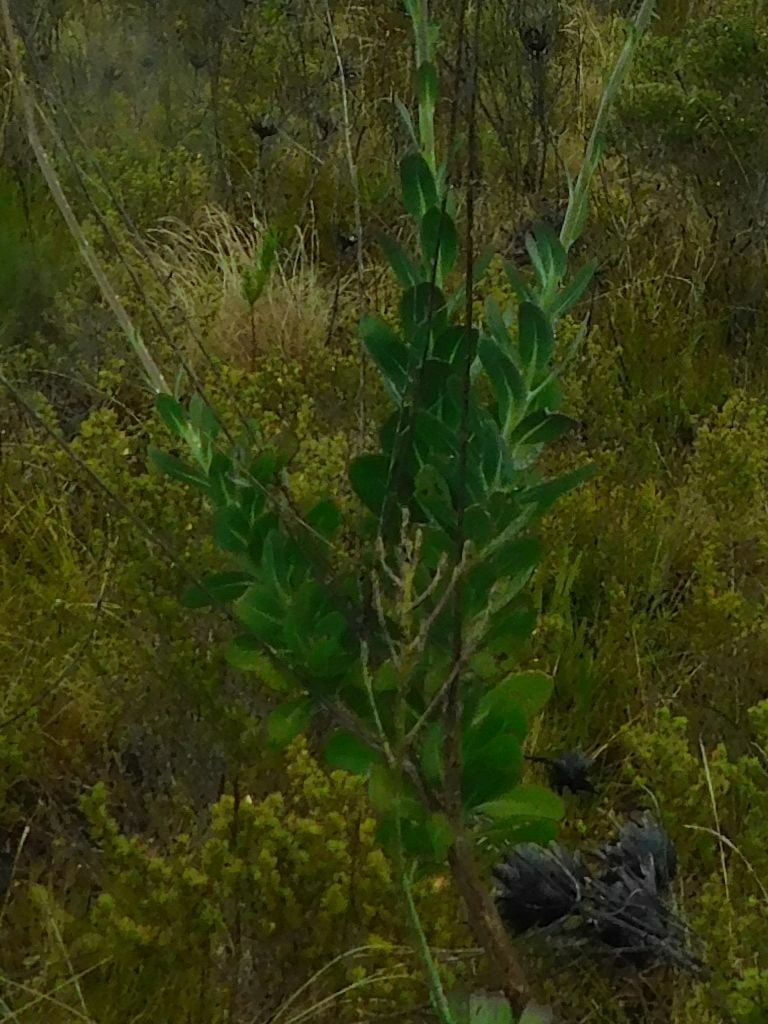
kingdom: Plantae
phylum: Tracheophyta
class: Magnoliopsida
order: Asterales
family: Asteraceae
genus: Othonna
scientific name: Othonna quinquedentata
